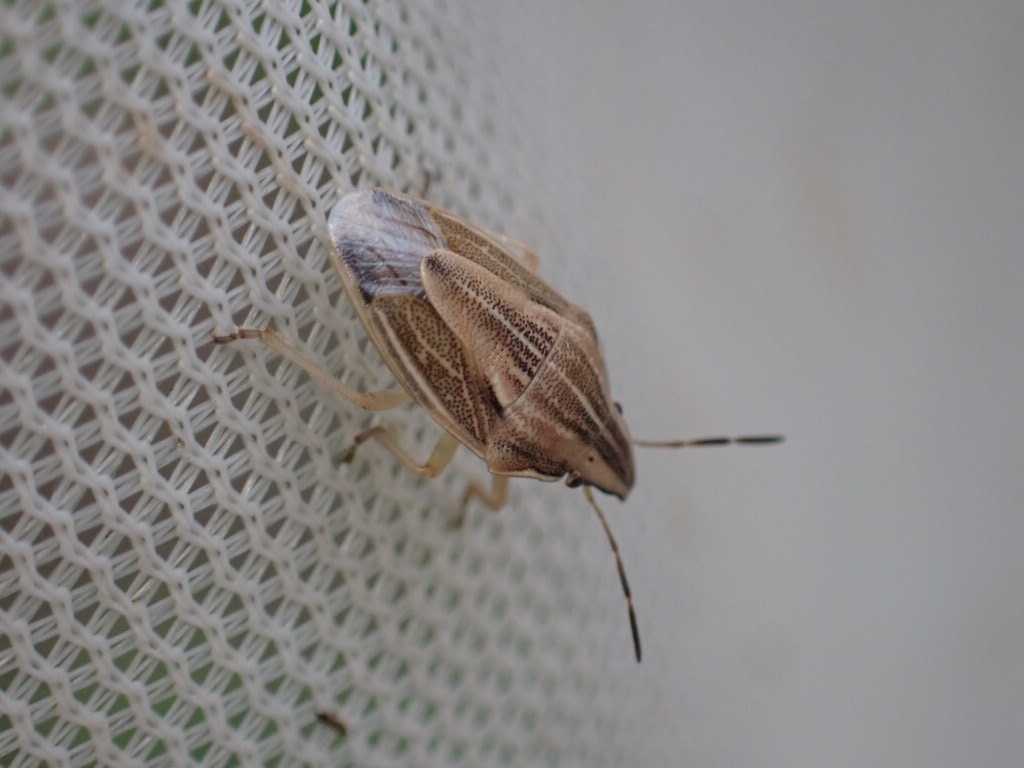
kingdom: Animalia
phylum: Arthropoda
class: Insecta
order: Hemiptera
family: Pentatomidae
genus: Aelia
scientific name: Aelia acuminata
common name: Bishop's mitre
